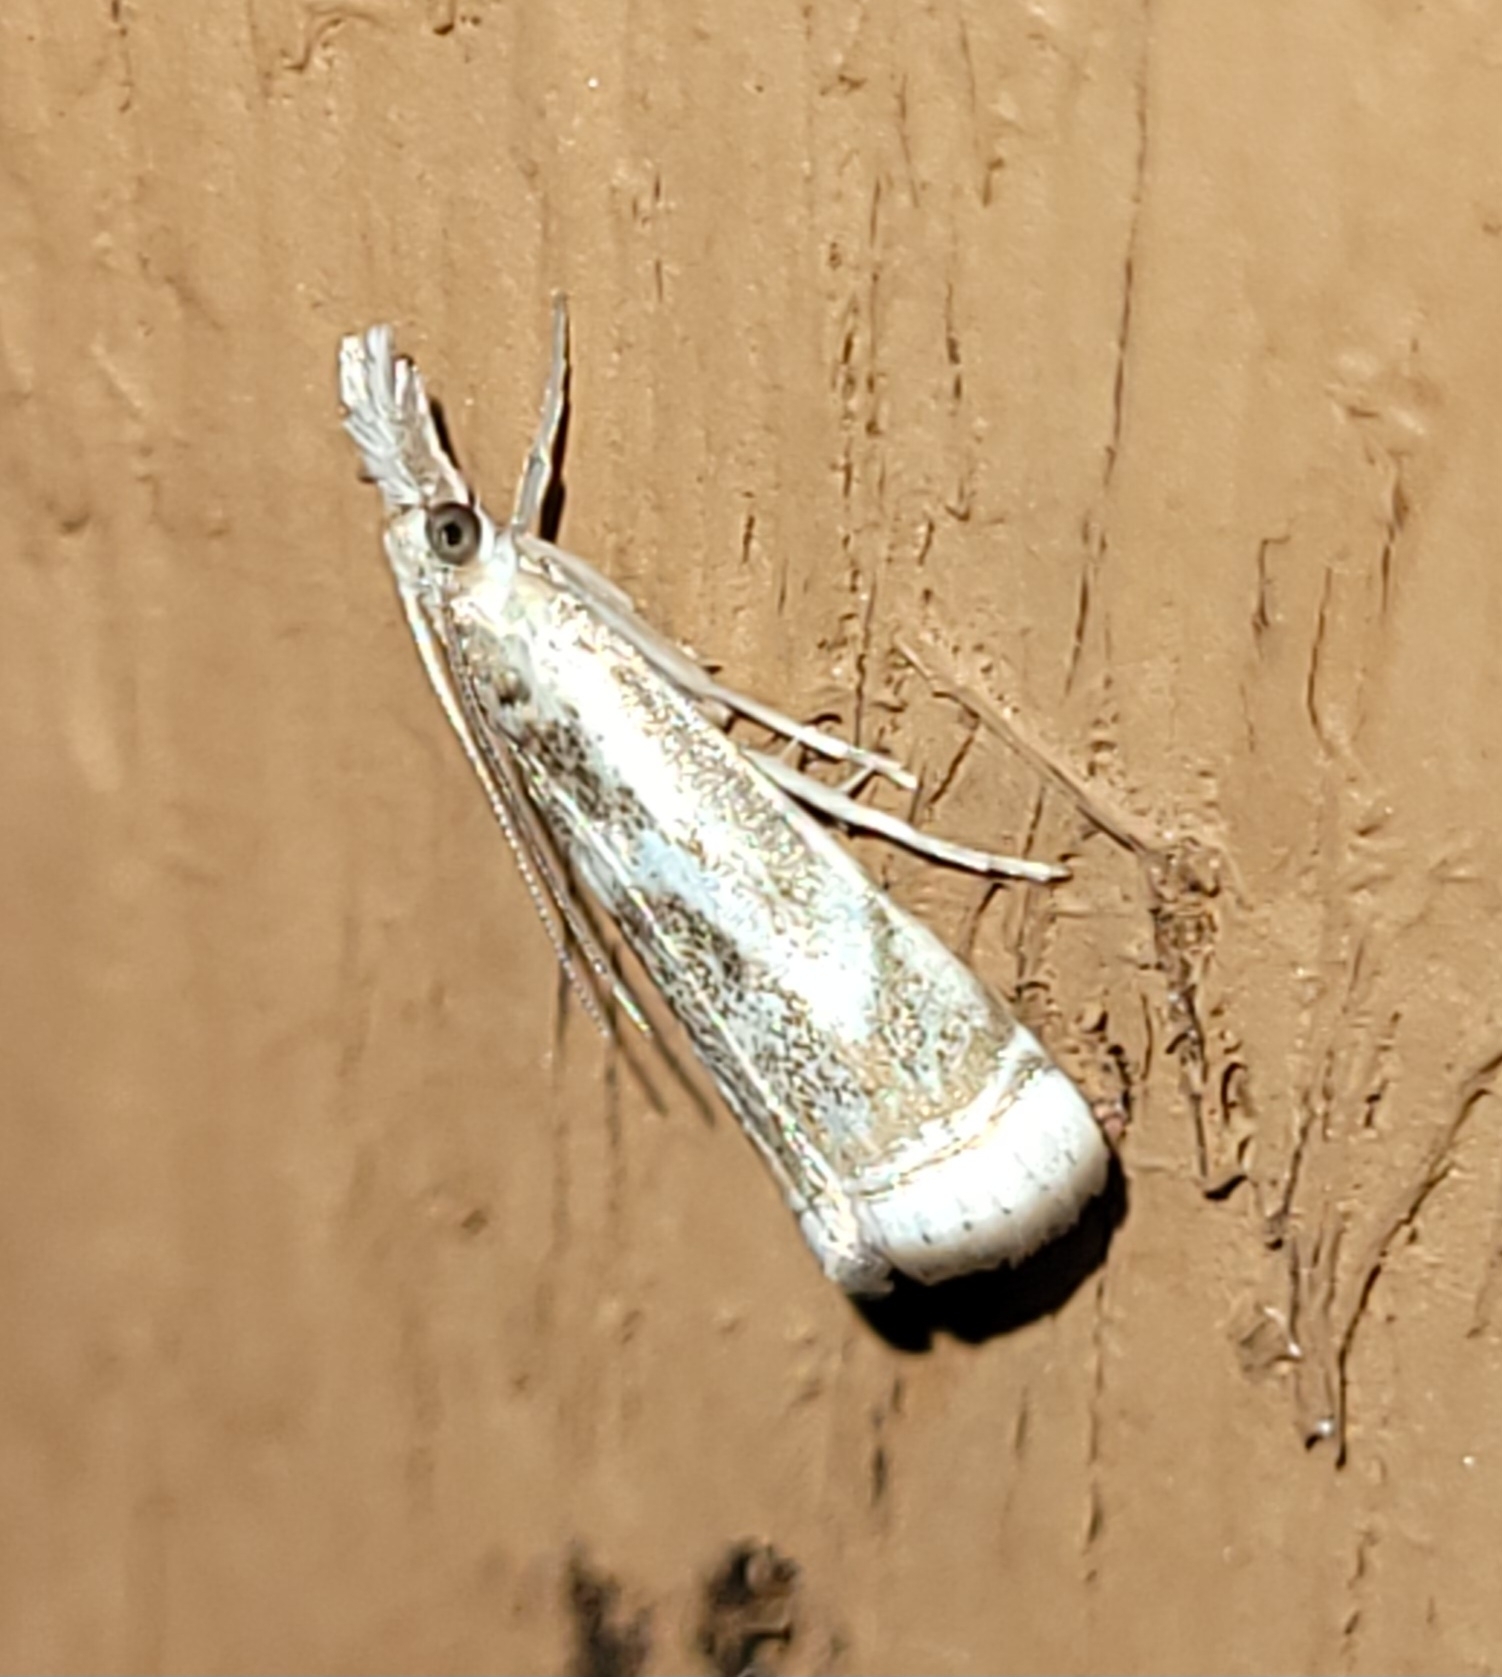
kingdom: Animalia
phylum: Arthropoda
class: Insecta
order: Lepidoptera
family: Crambidae
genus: Microcrambus
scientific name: Microcrambus elegans
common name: Elegant grass-veneer
